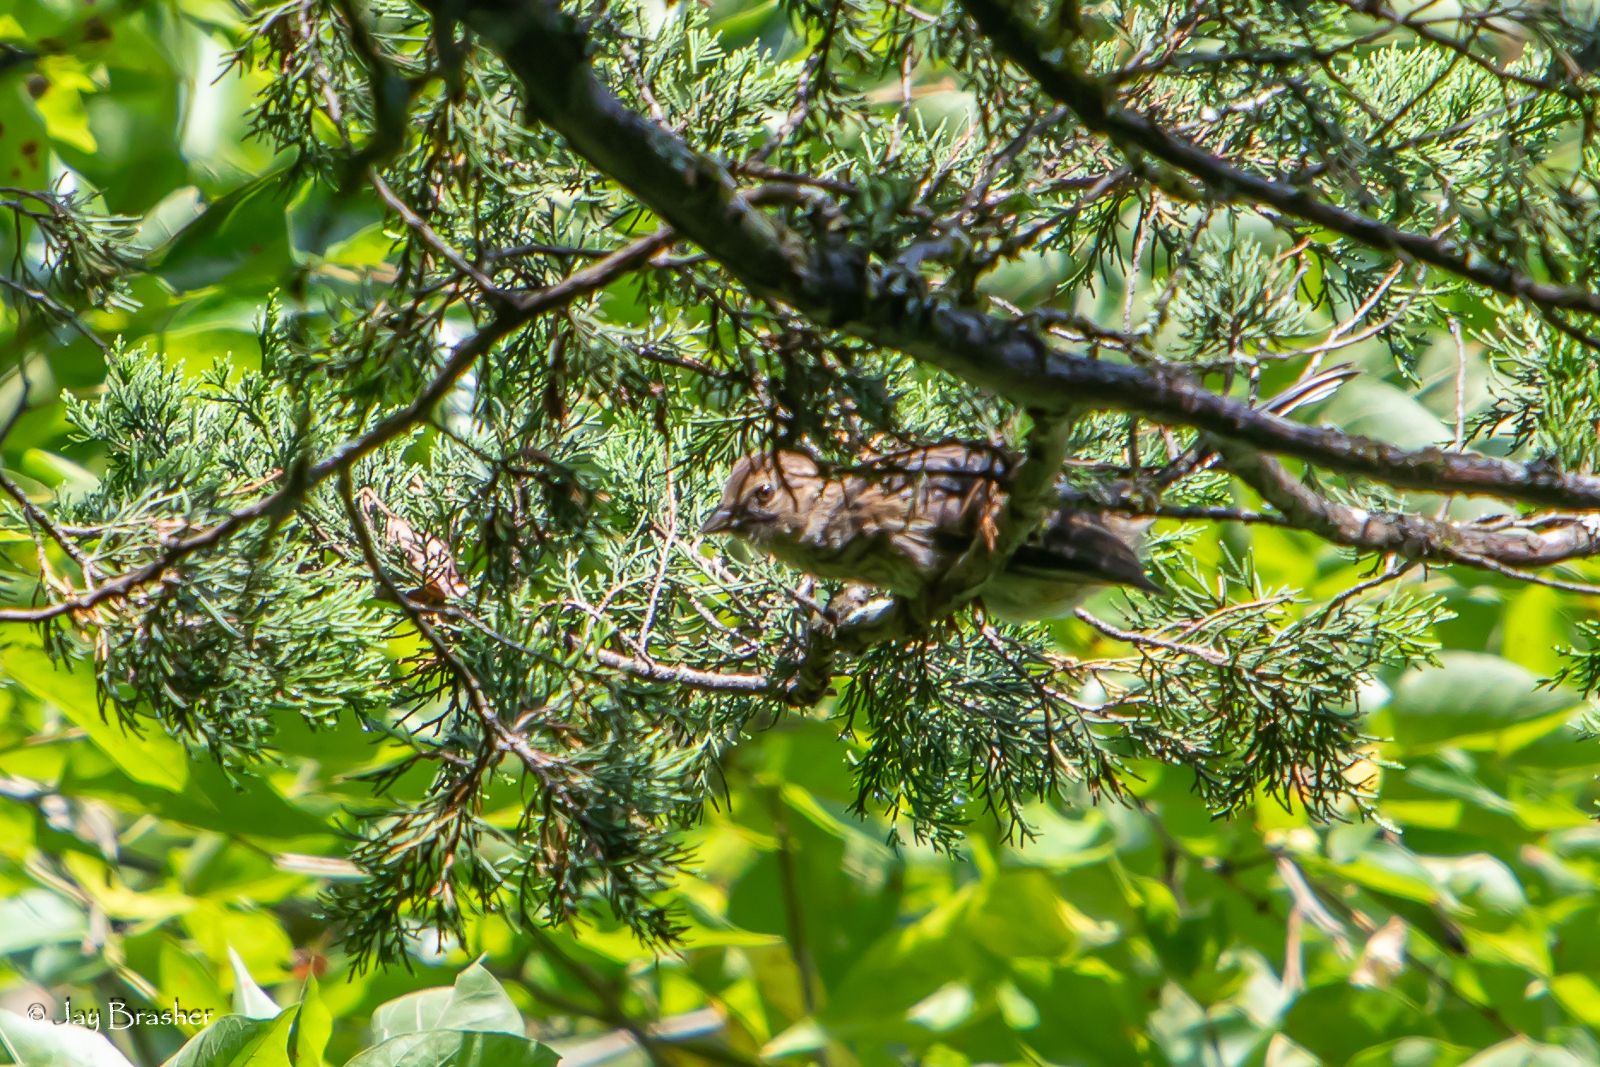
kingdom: Animalia
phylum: Chordata
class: Aves
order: Passeriformes
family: Passerellidae
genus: Pipilo
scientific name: Pipilo erythrophthalmus
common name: Eastern towhee
